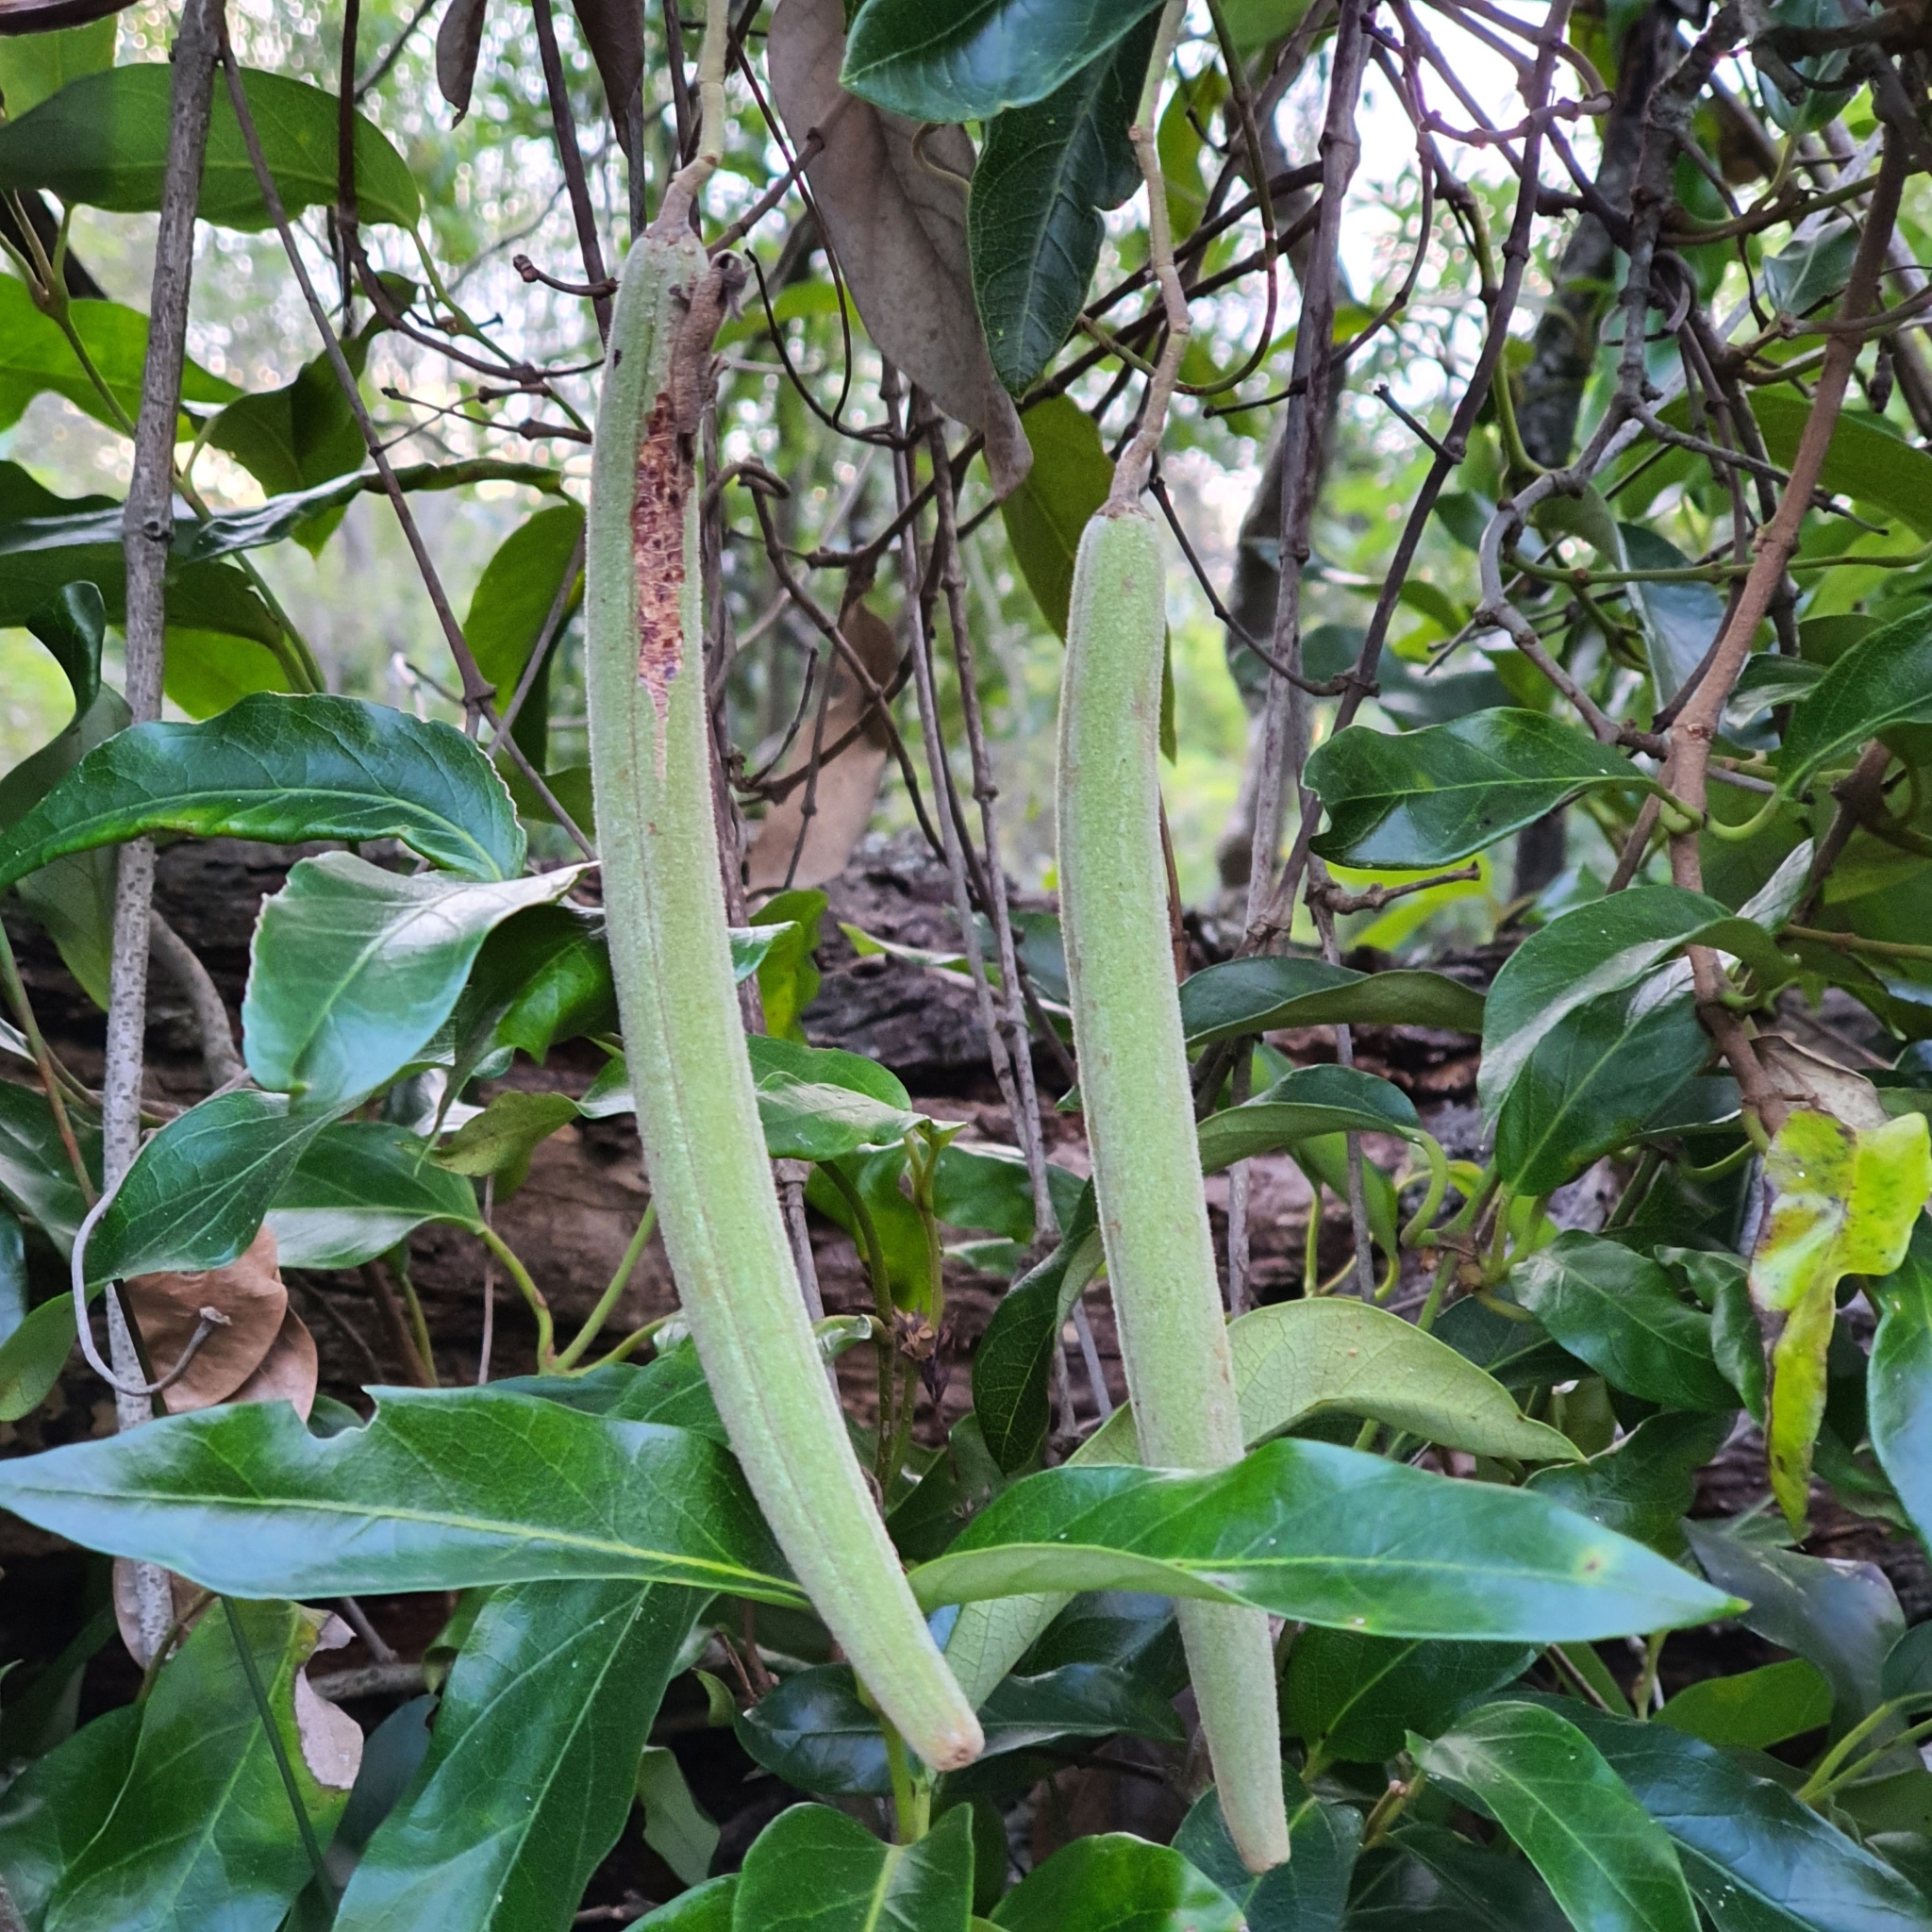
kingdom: Plantae
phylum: Tracheophyta
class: Magnoliopsida
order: Gentianales
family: Apocynaceae
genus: Parsonsia
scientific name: Parsonsia straminea
